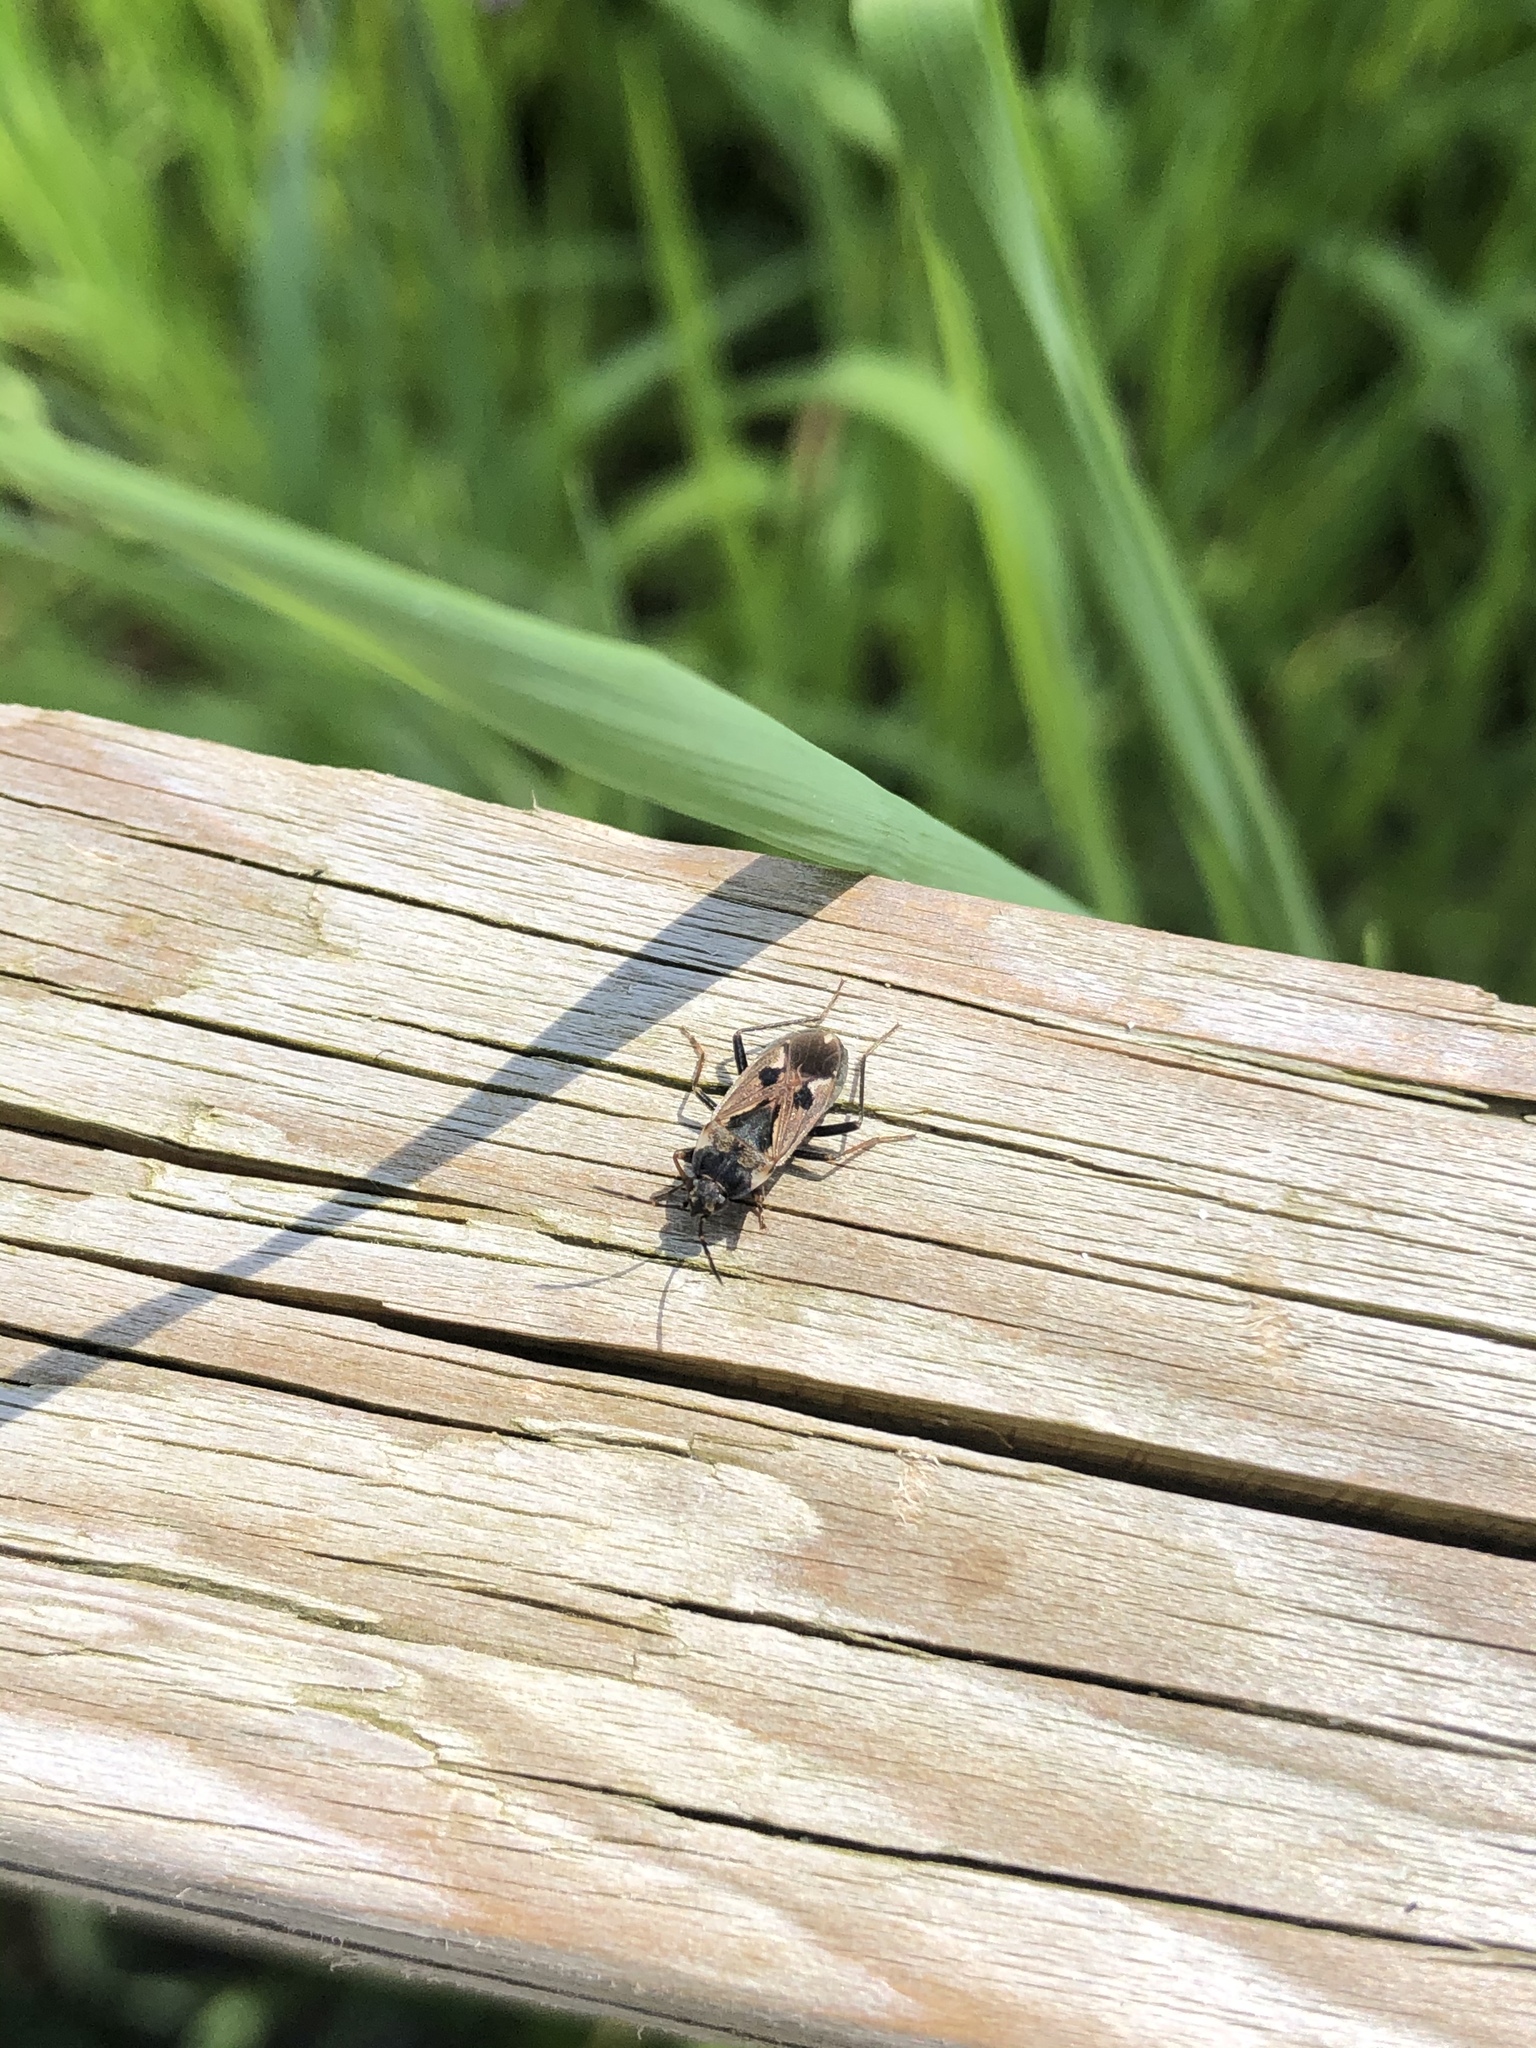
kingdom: Animalia
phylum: Arthropoda
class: Insecta
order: Hemiptera
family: Rhyparochromidae
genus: Rhyparochromus
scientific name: Rhyparochromus vulgaris
